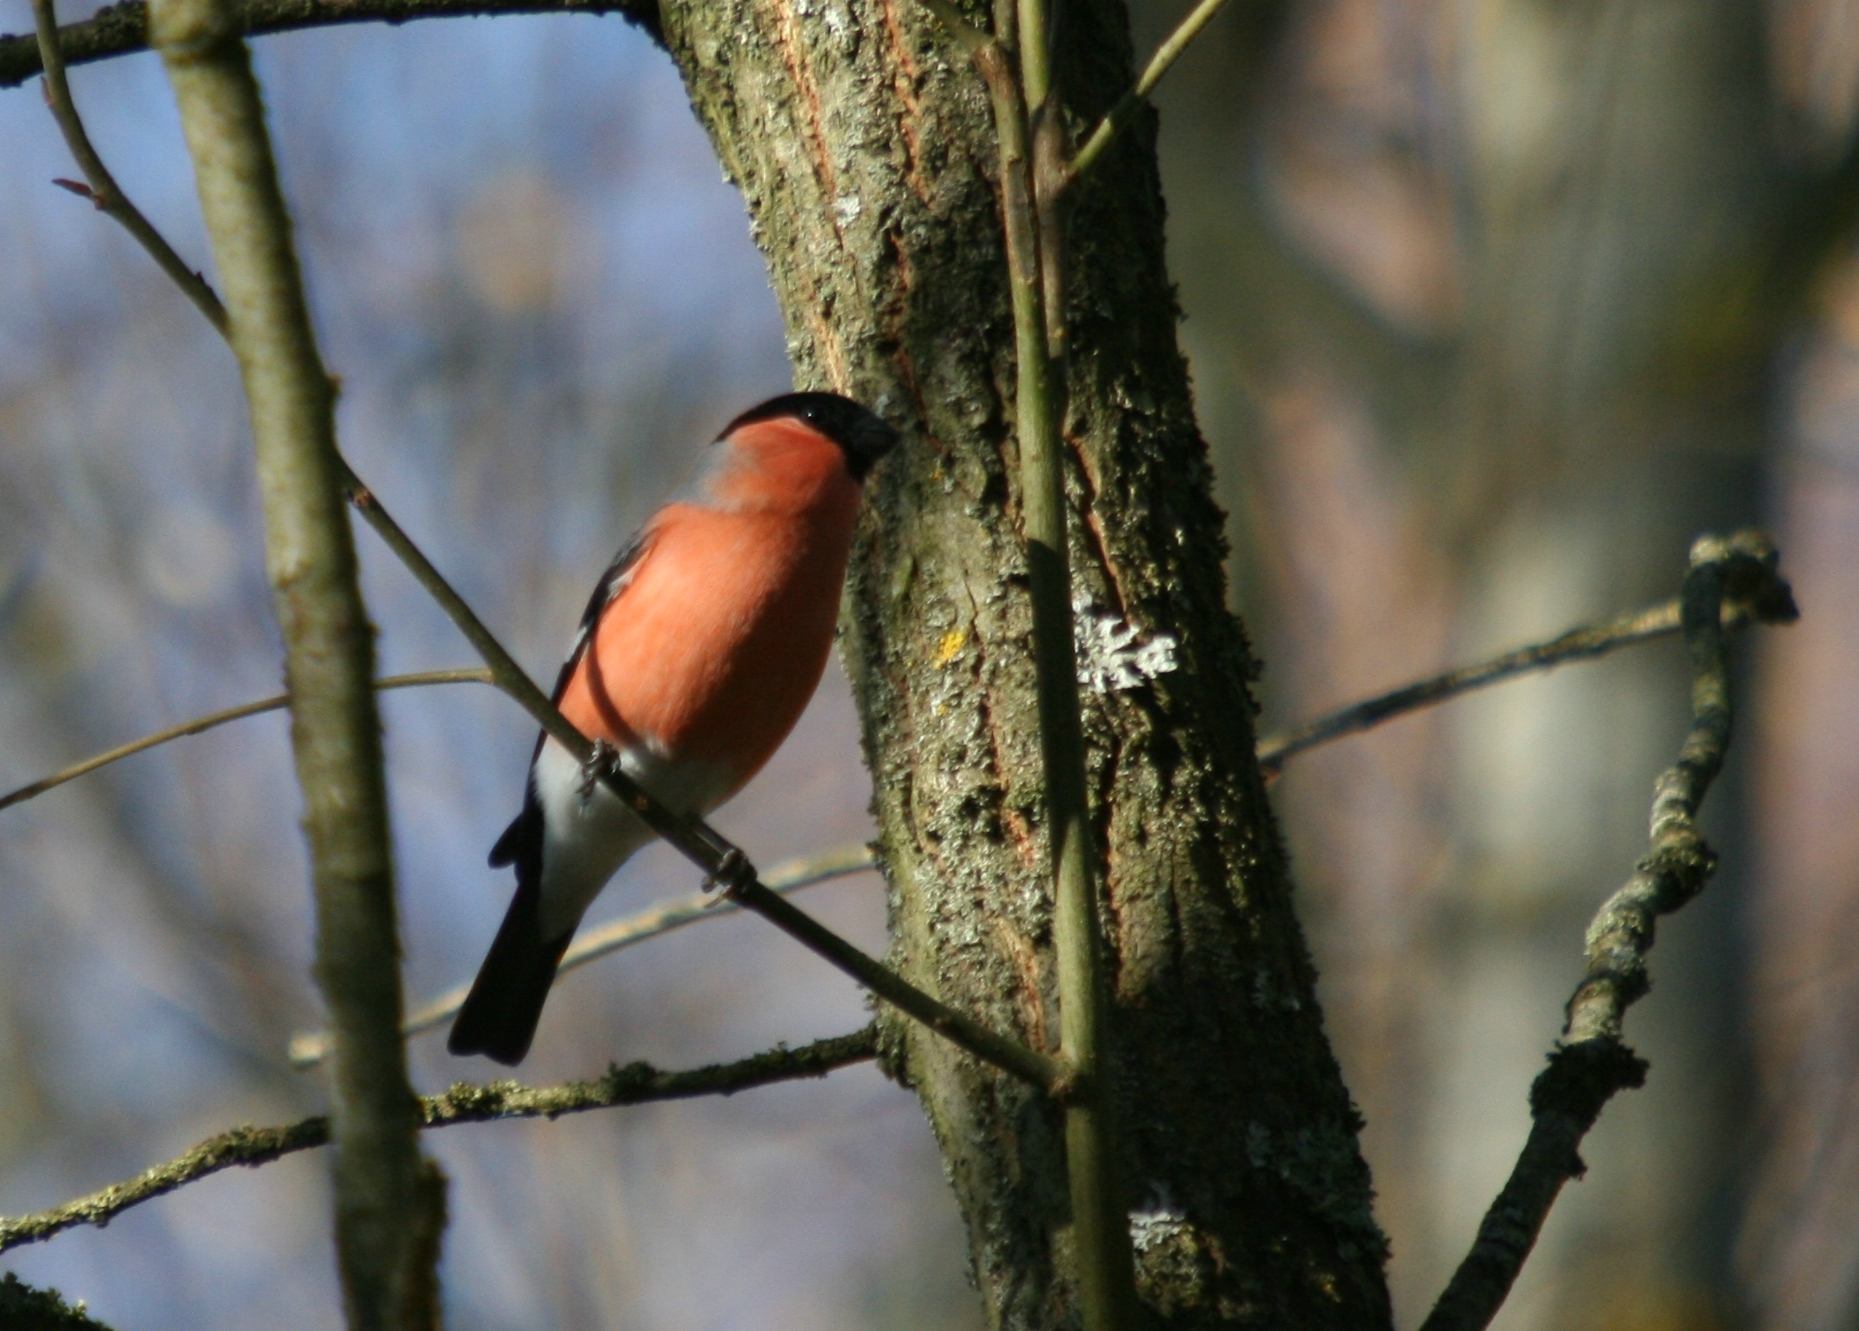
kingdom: Animalia
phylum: Chordata
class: Aves
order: Passeriformes
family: Fringillidae
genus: Pyrrhula
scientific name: Pyrrhula pyrrhula
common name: Eurasian bullfinch
